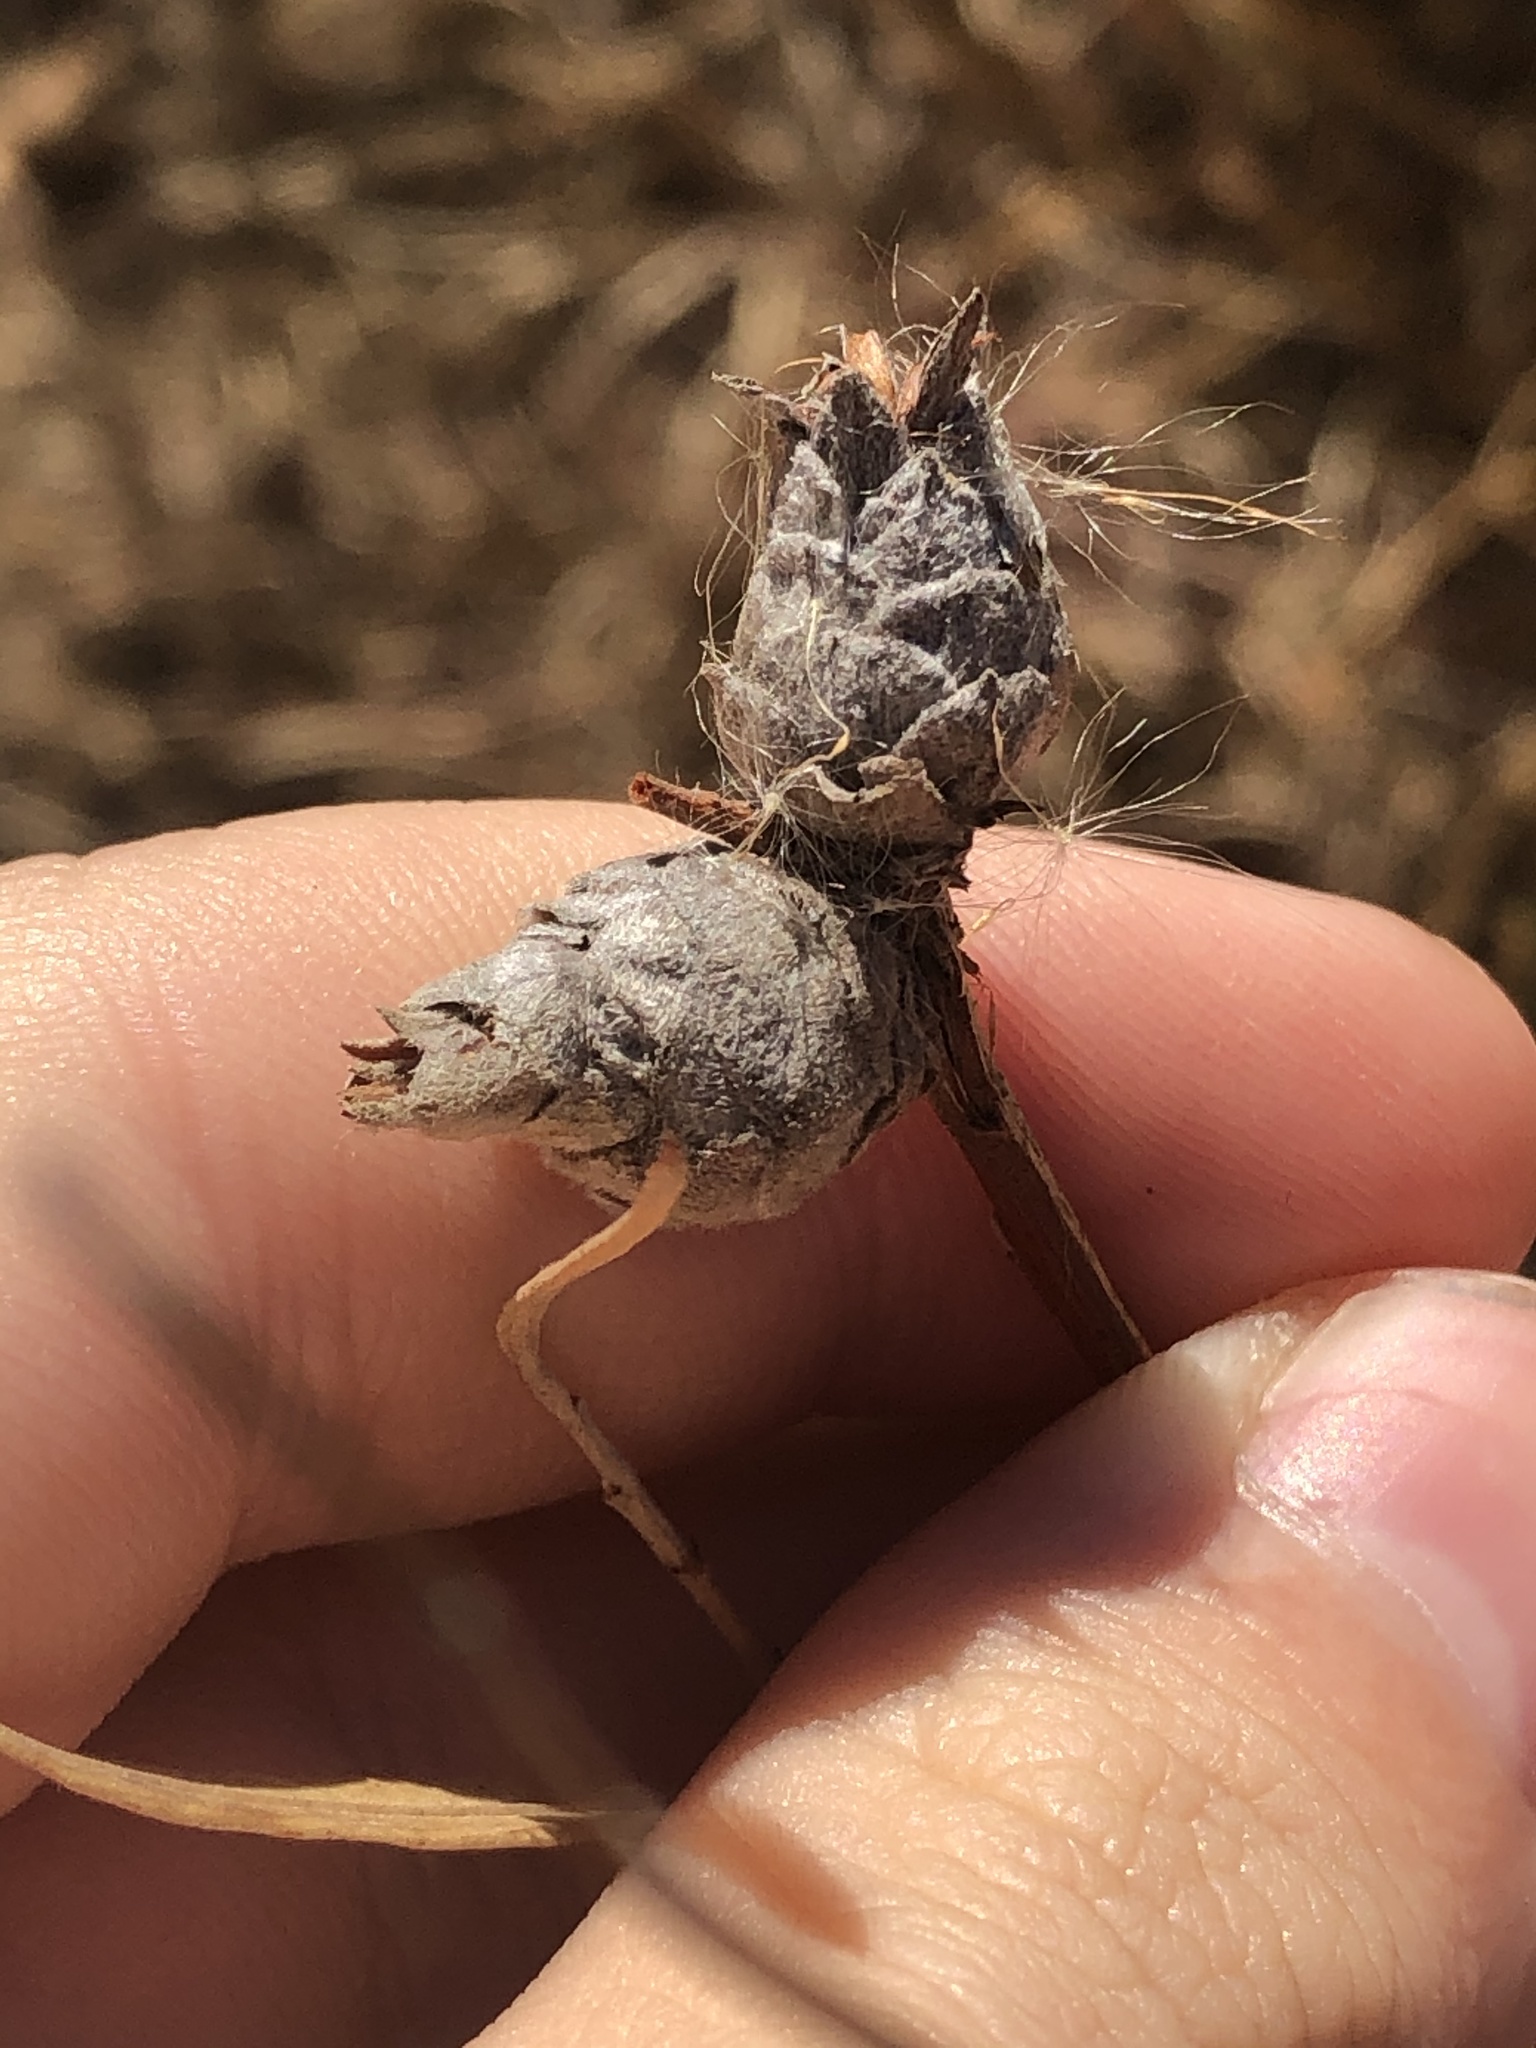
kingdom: Animalia
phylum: Arthropoda
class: Insecta
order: Diptera
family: Cecidomyiidae
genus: Rabdophaga
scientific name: Rabdophaga strobiloides
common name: Willow pinecone gall midge
